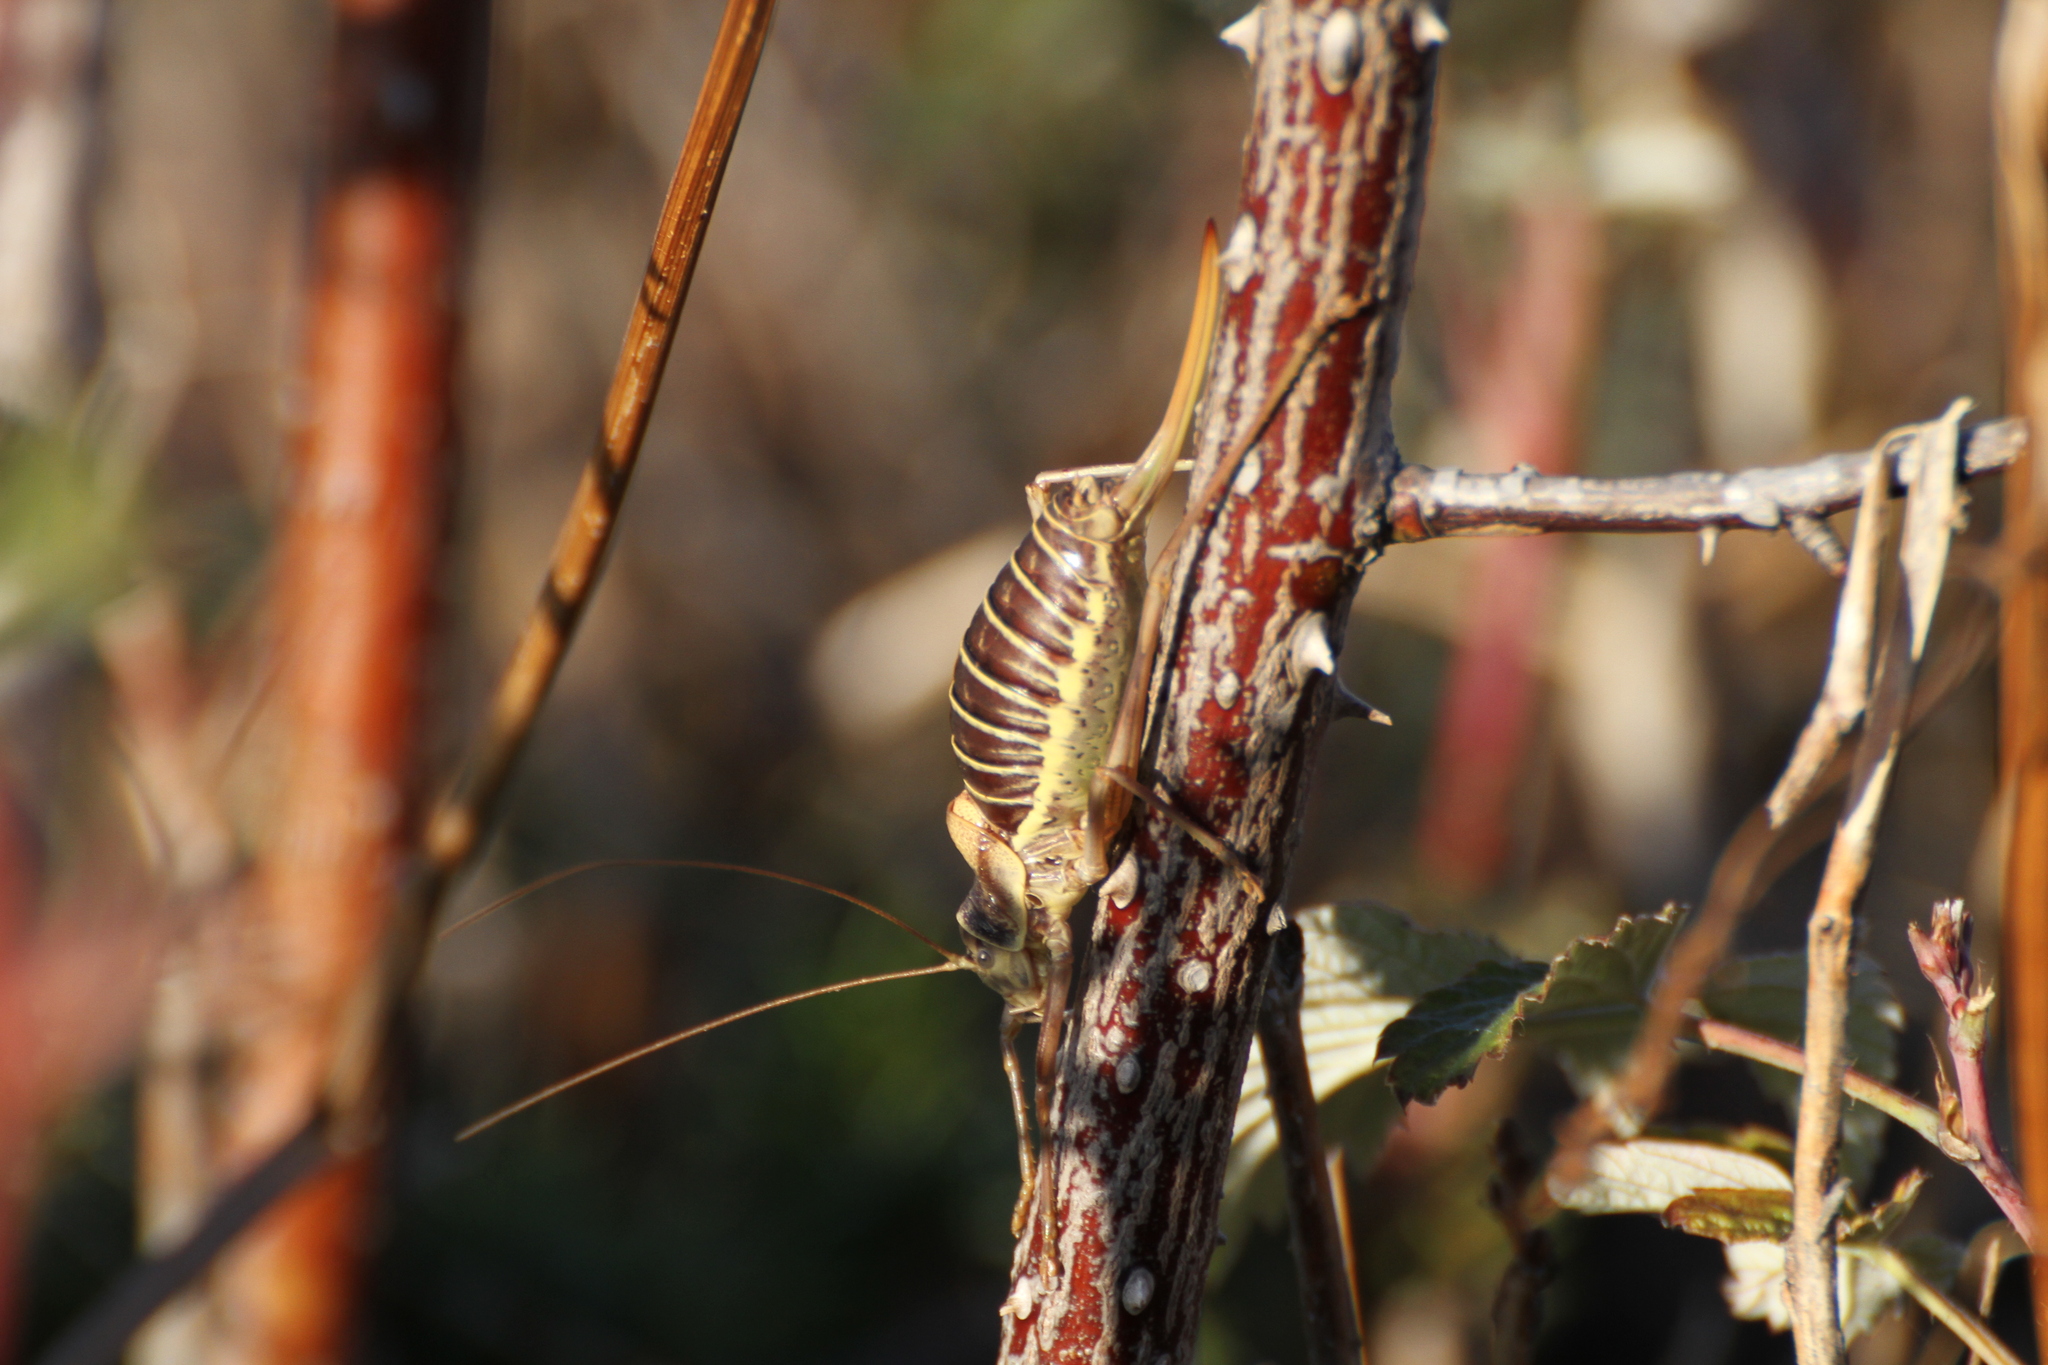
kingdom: Animalia
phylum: Arthropoda
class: Insecta
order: Orthoptera
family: Tettigoniidae
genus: Ephippiger
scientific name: Ephippiger diurnus
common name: Western saddle bush-cricket
